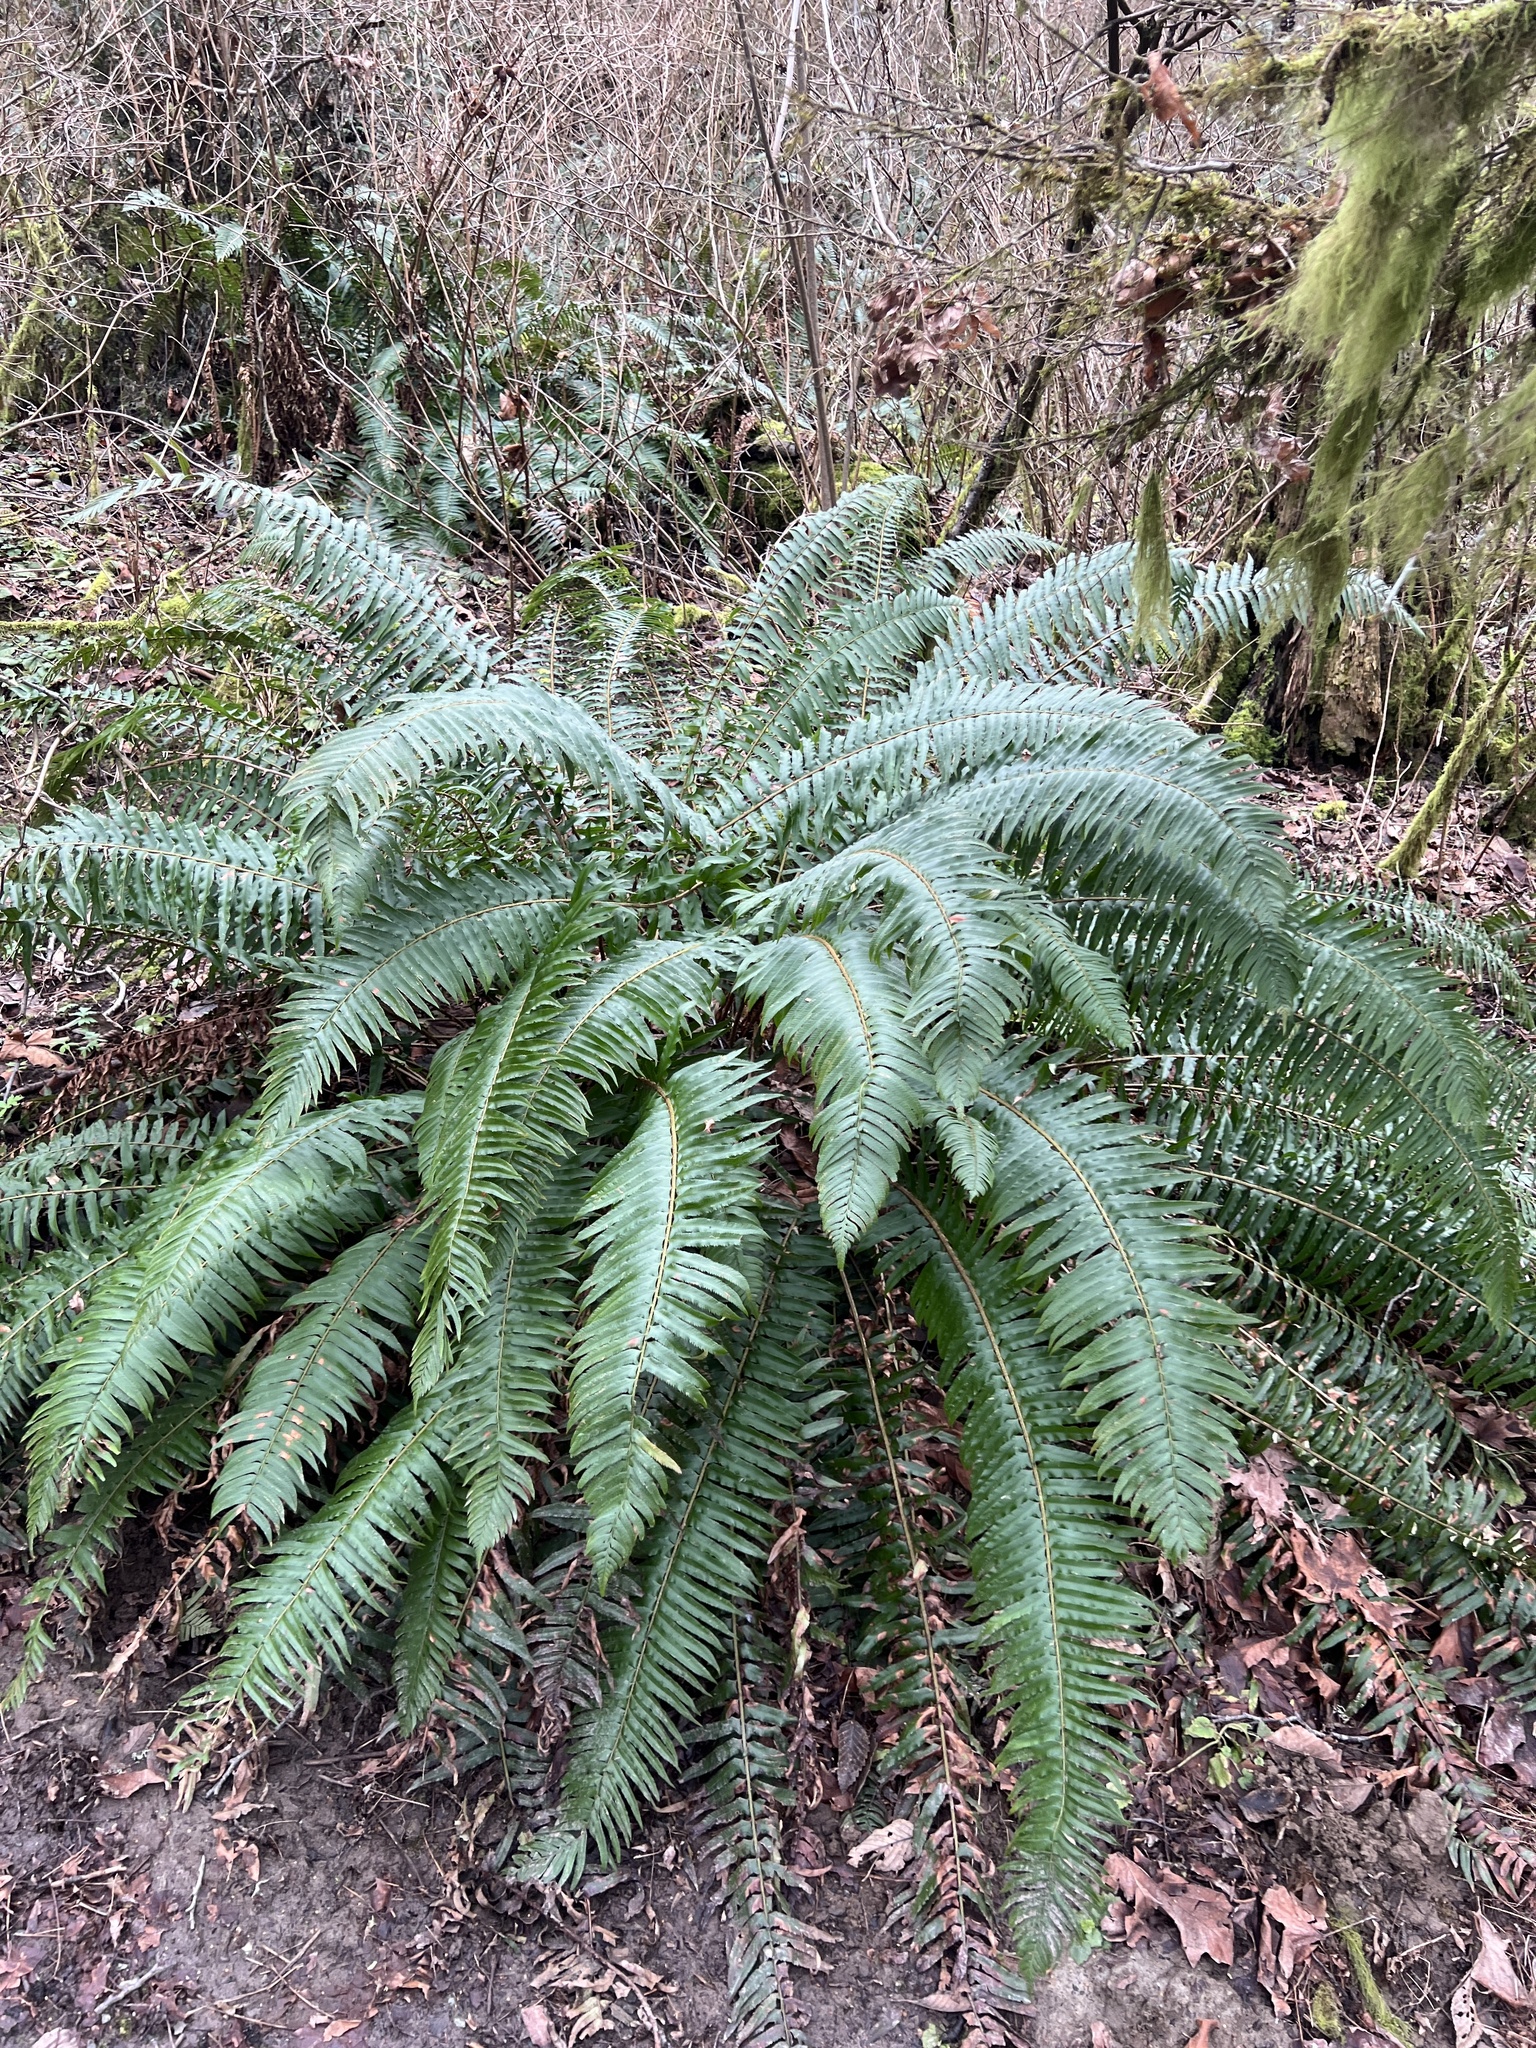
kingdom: Plantae
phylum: Tracheophyta
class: Polypodiopsida
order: Polypodiales
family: Dryopteridaceae
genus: Polystichum
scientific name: Polystichum munitum
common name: Western sword-fern
